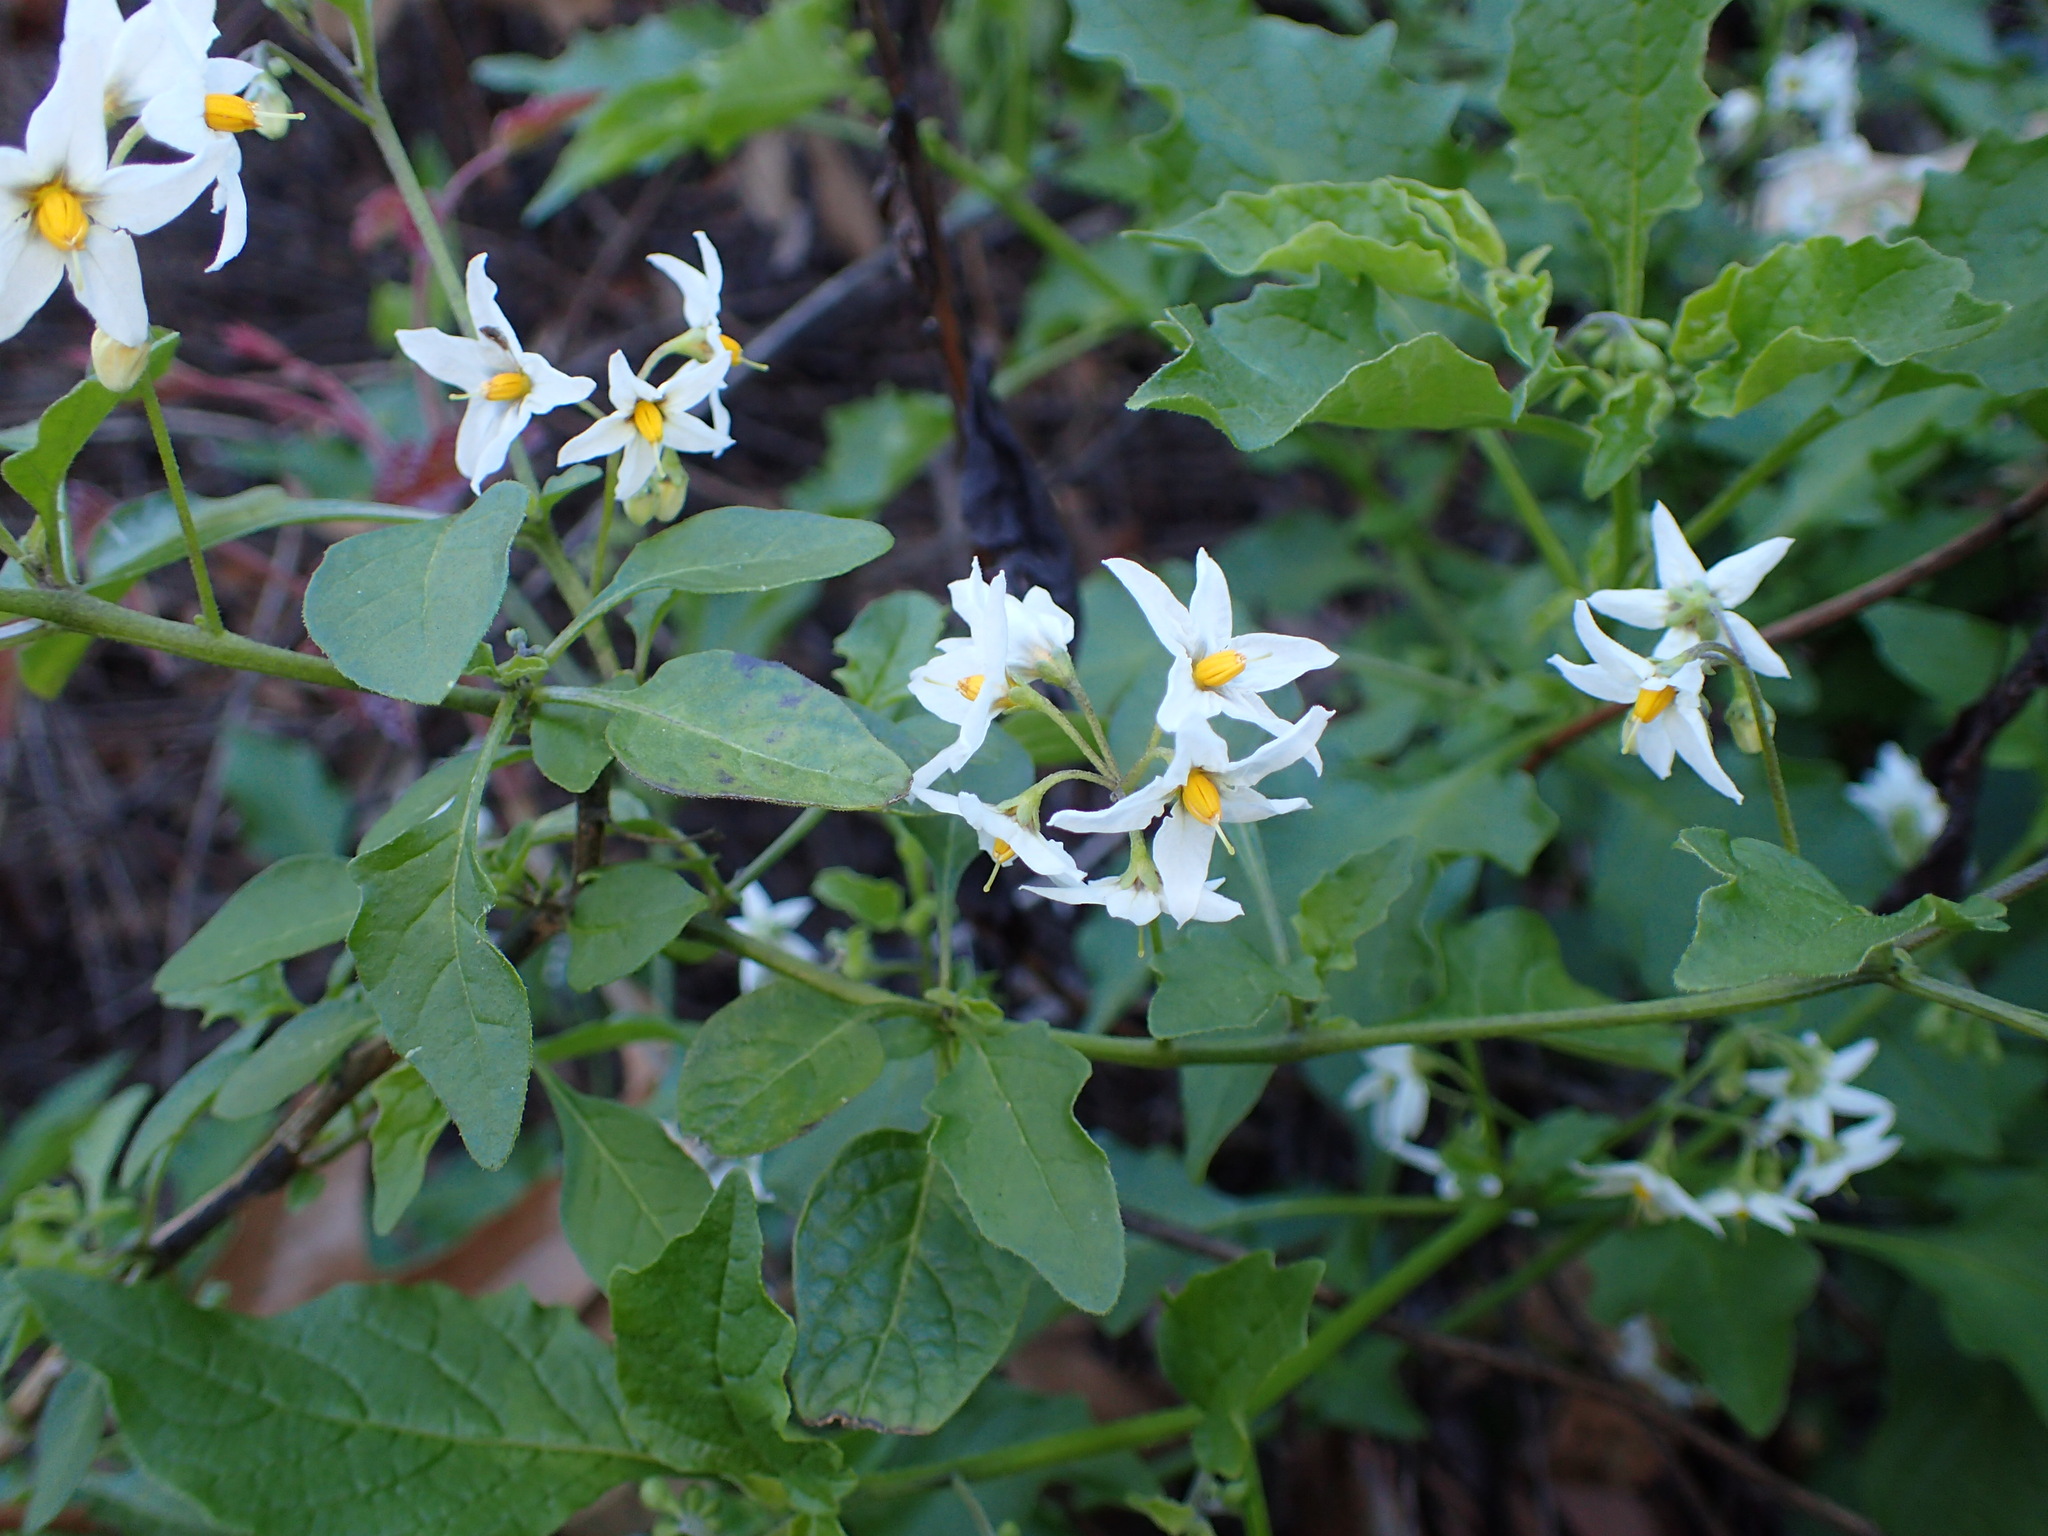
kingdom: Plantae
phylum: Tracheophyta
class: Magnoliopsida
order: Solanales
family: Solanaceae
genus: Solanum
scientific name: Solanum douglasii
